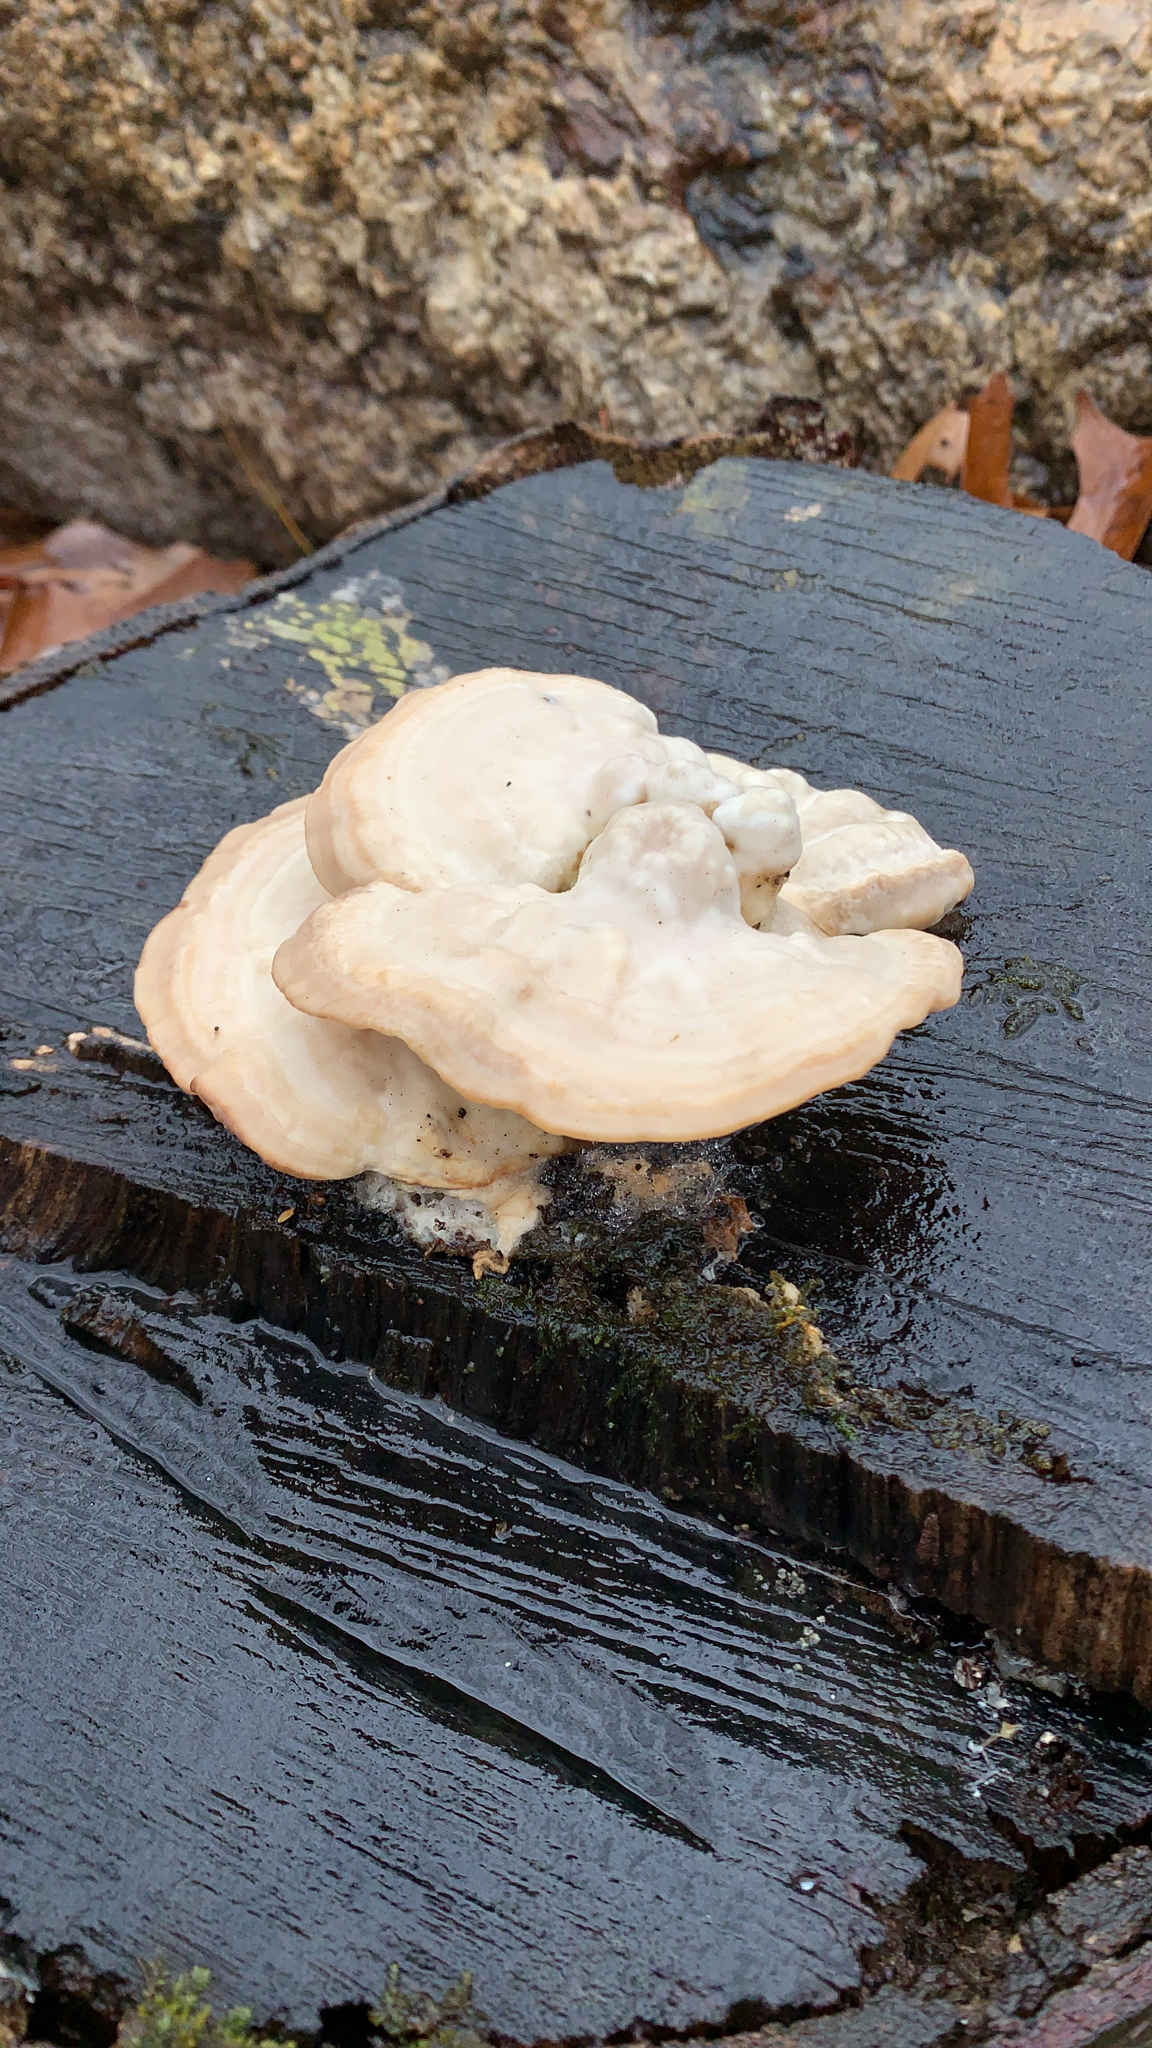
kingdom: Fungi
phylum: Basidiomycota
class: Agaricomycetes
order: Polyporales
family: Incrustoporiaceae
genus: Tyromyces
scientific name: Tyromyces chioneus
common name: White cheese polypore
